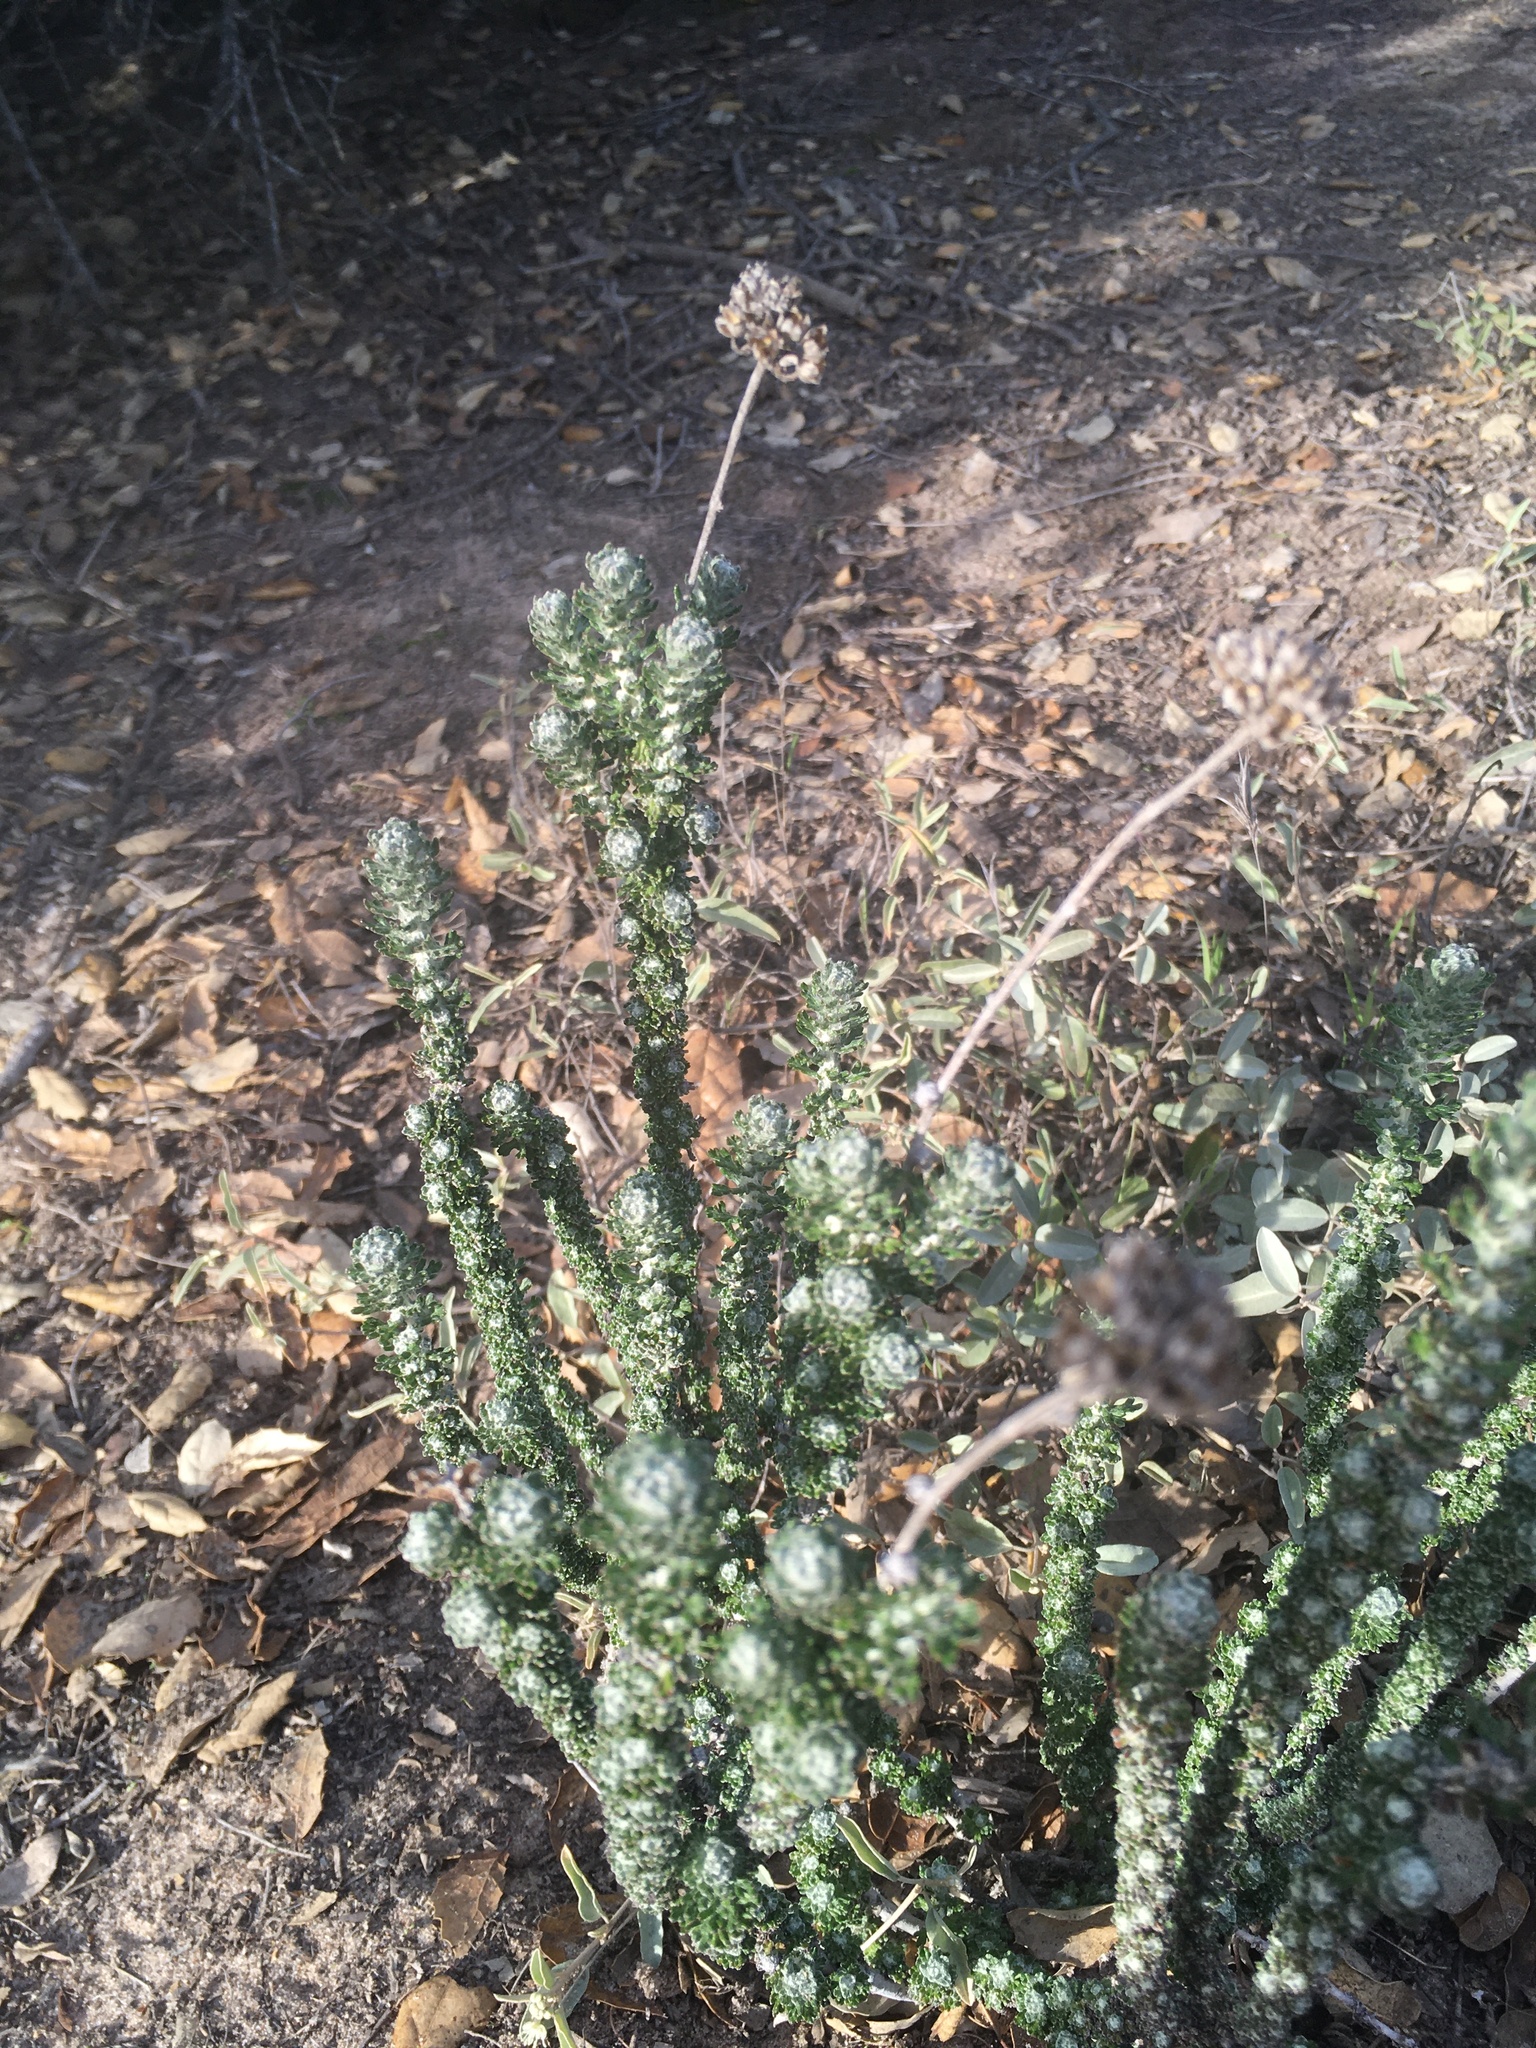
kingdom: Plantae
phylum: Tracheophyta
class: Magnoliopsida
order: Asterales
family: Asteraceae
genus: Eriophyllum
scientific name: Eriophyllum confertiflorum
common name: Golden-yarrow
